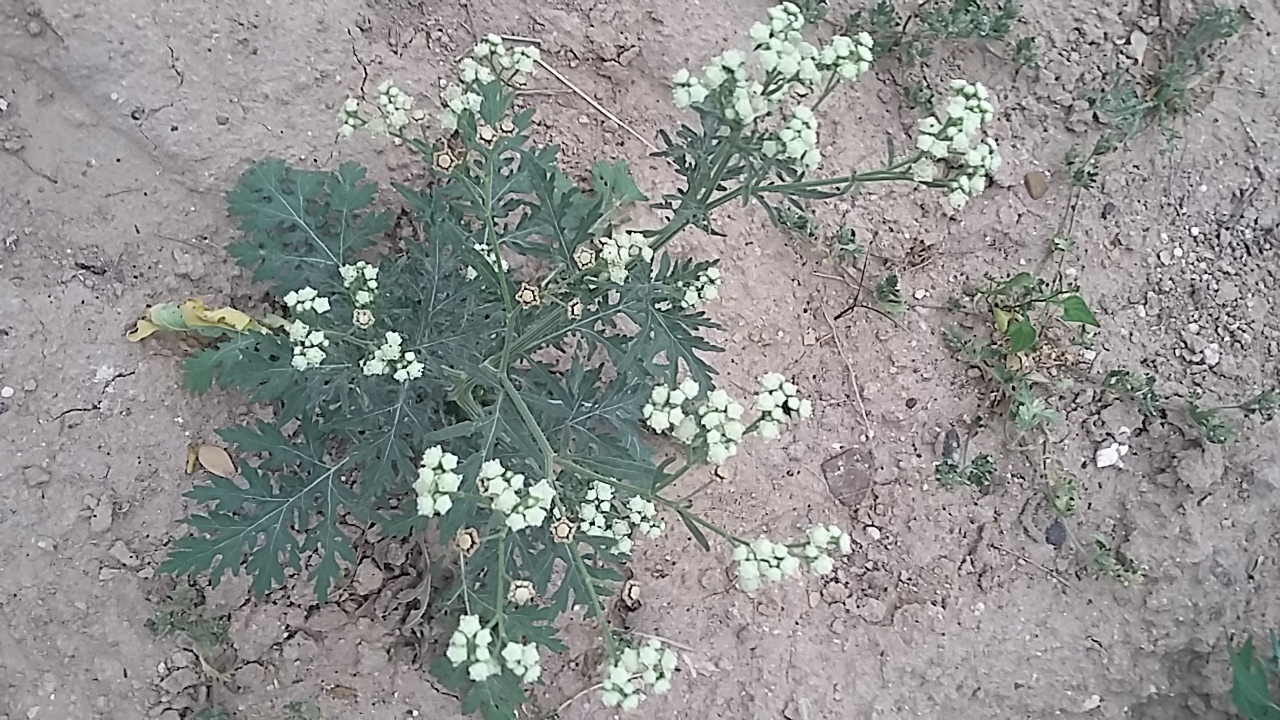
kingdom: Plantae
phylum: Tracheophyta
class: Magnoliopsida
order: Asterales
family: Asteraceae
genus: Parthenium
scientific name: Parthenium hysterophorus
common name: Santa maria feverfew
